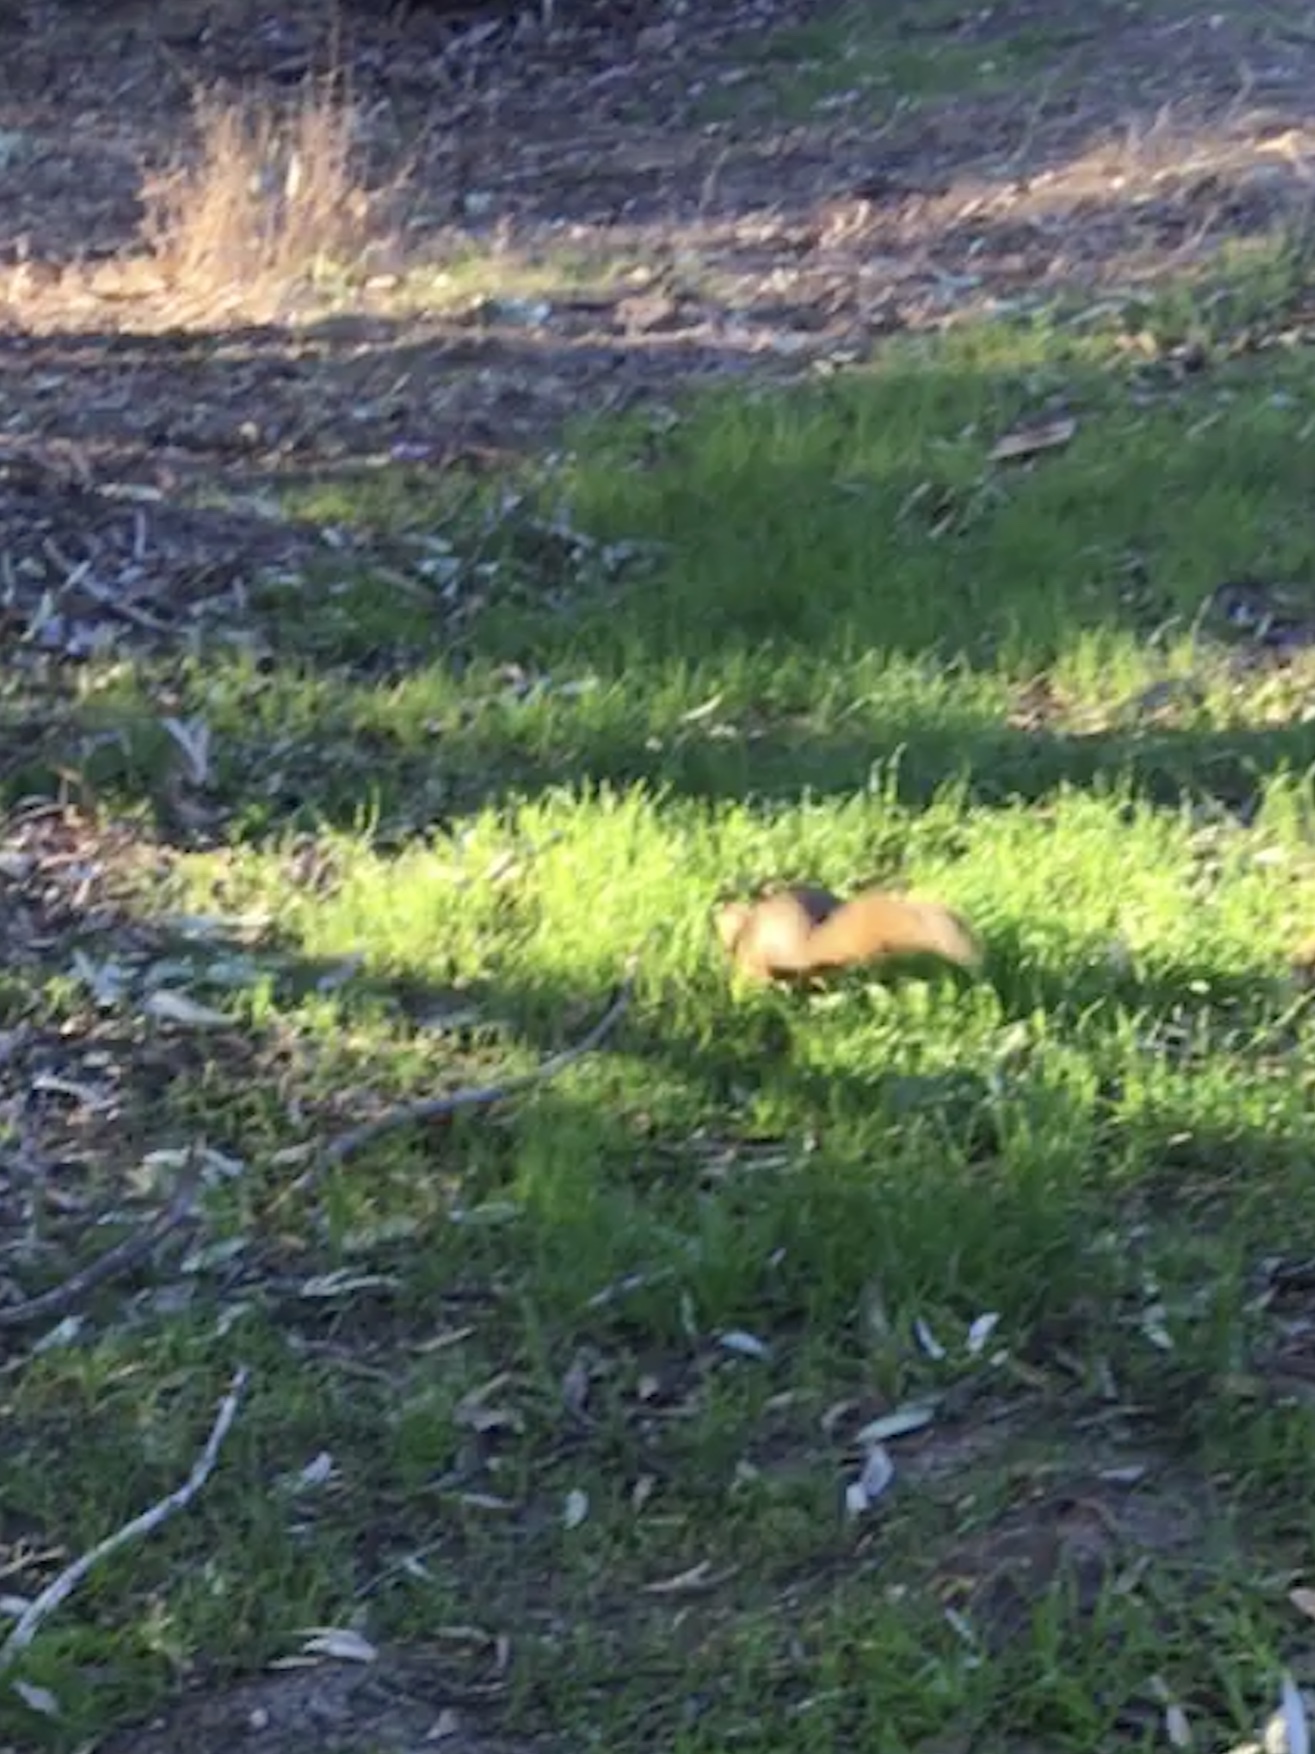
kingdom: Animalia
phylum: Chordata
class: Mammalia
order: Rodentia
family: Sciuridae
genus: Sciurus
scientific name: Sciurus niger
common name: Fox squirrel
